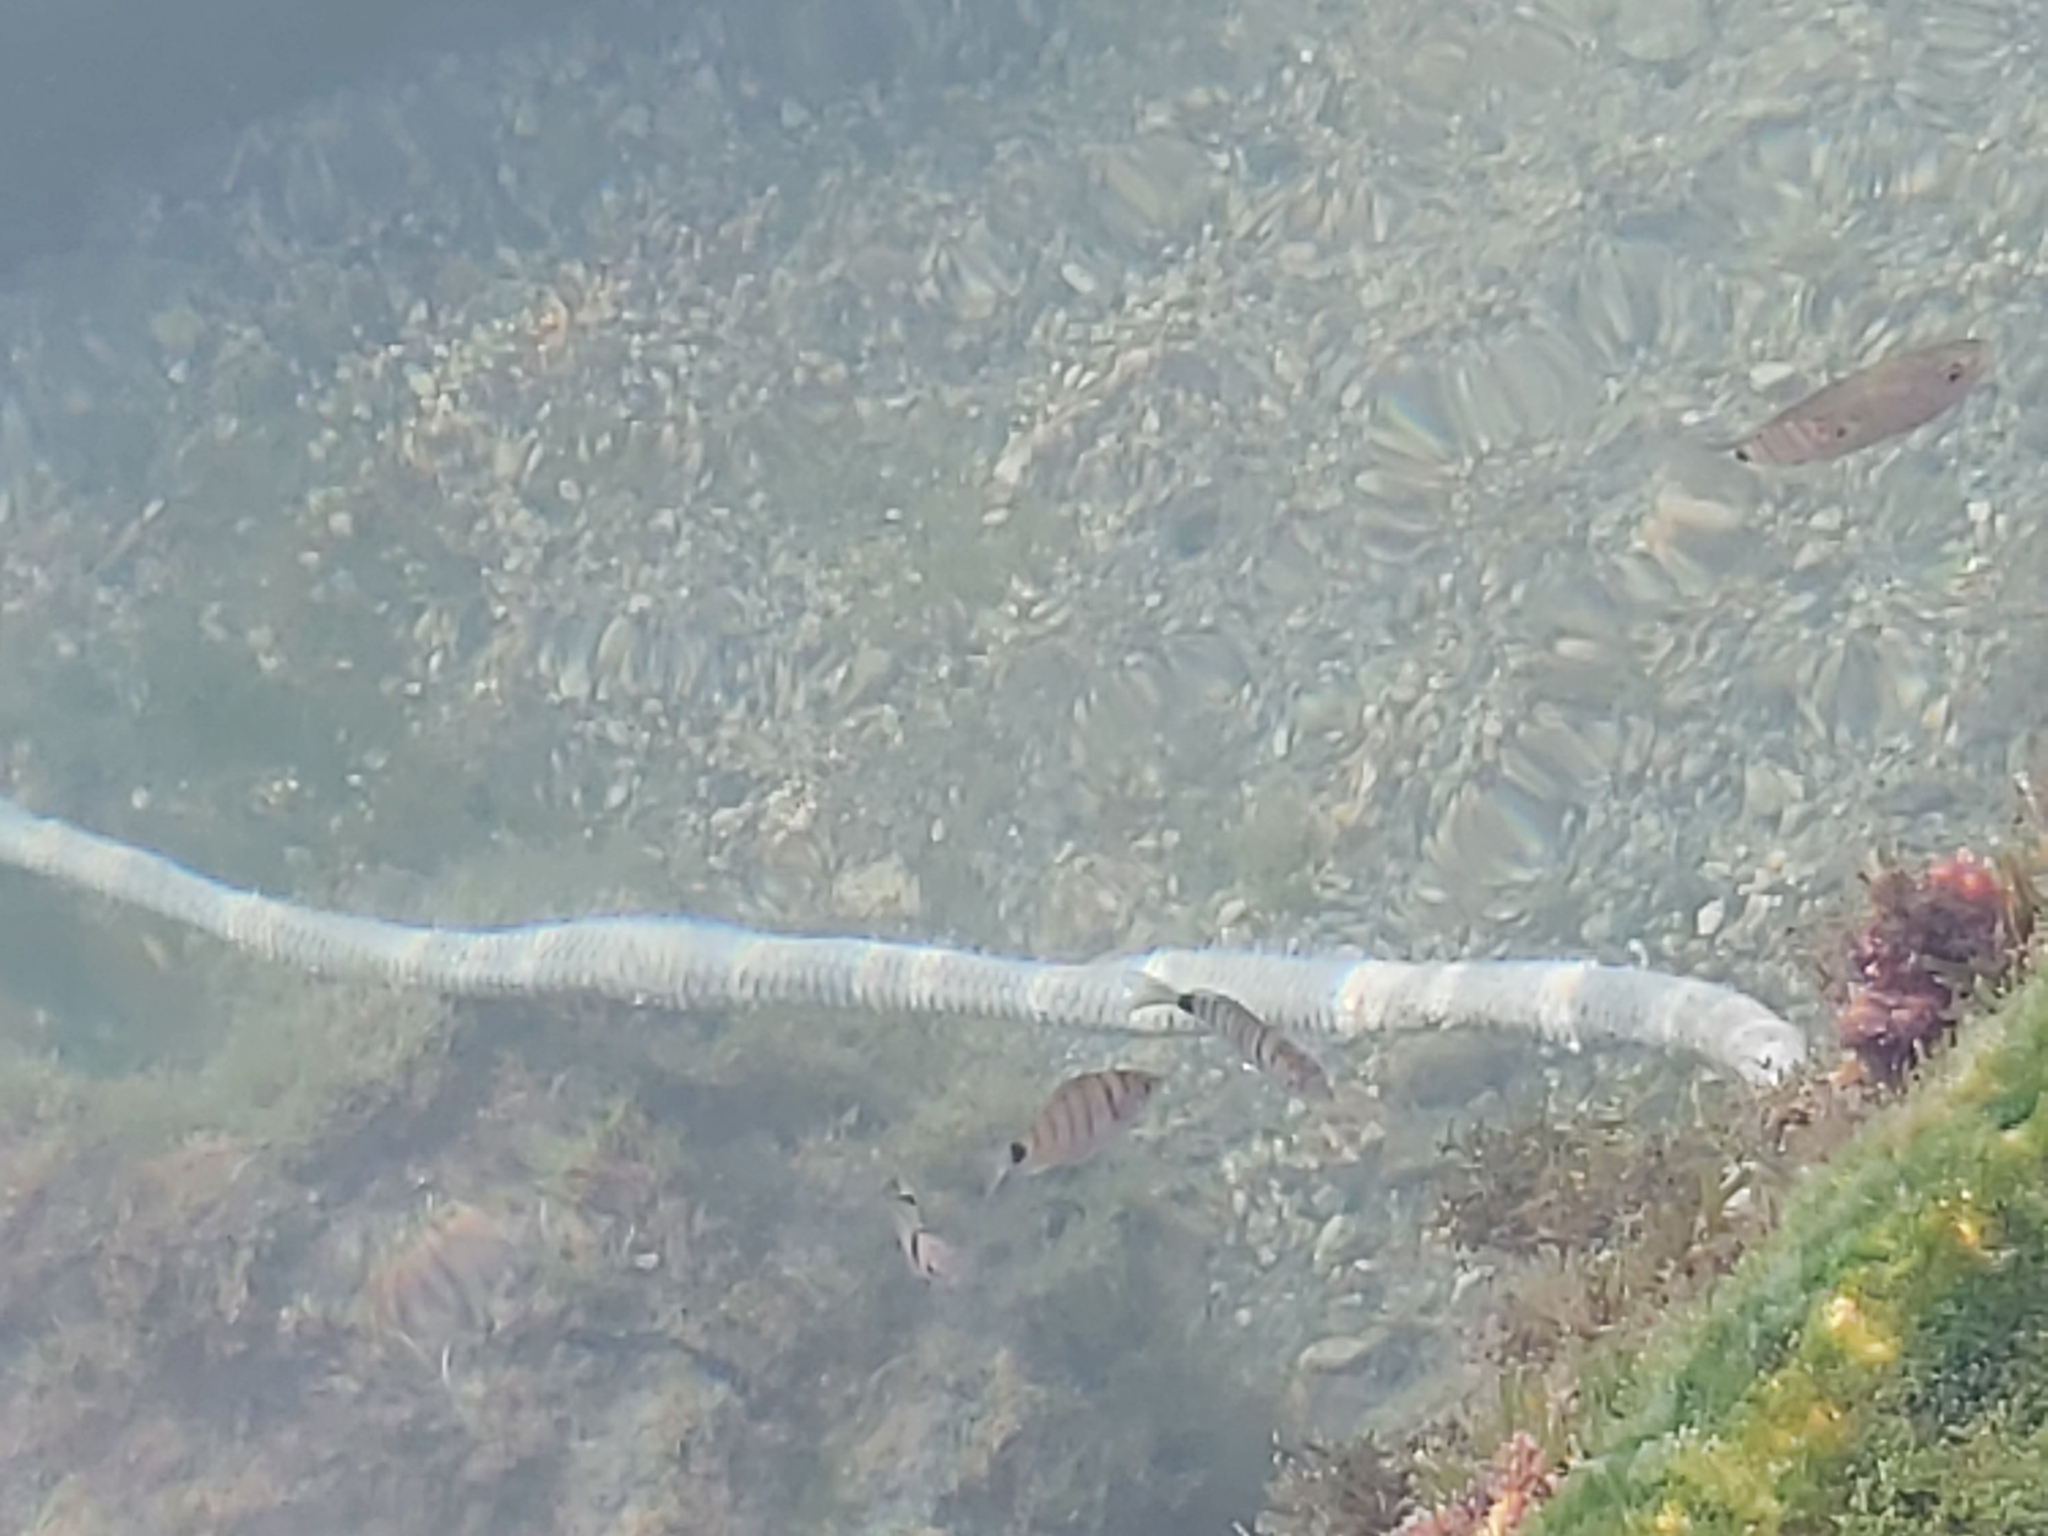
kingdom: Animalia
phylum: Chordata
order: Perciformes
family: Sparidae
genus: Diplodus
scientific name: Diplodus vulgaris
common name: Common two-banded seabream
